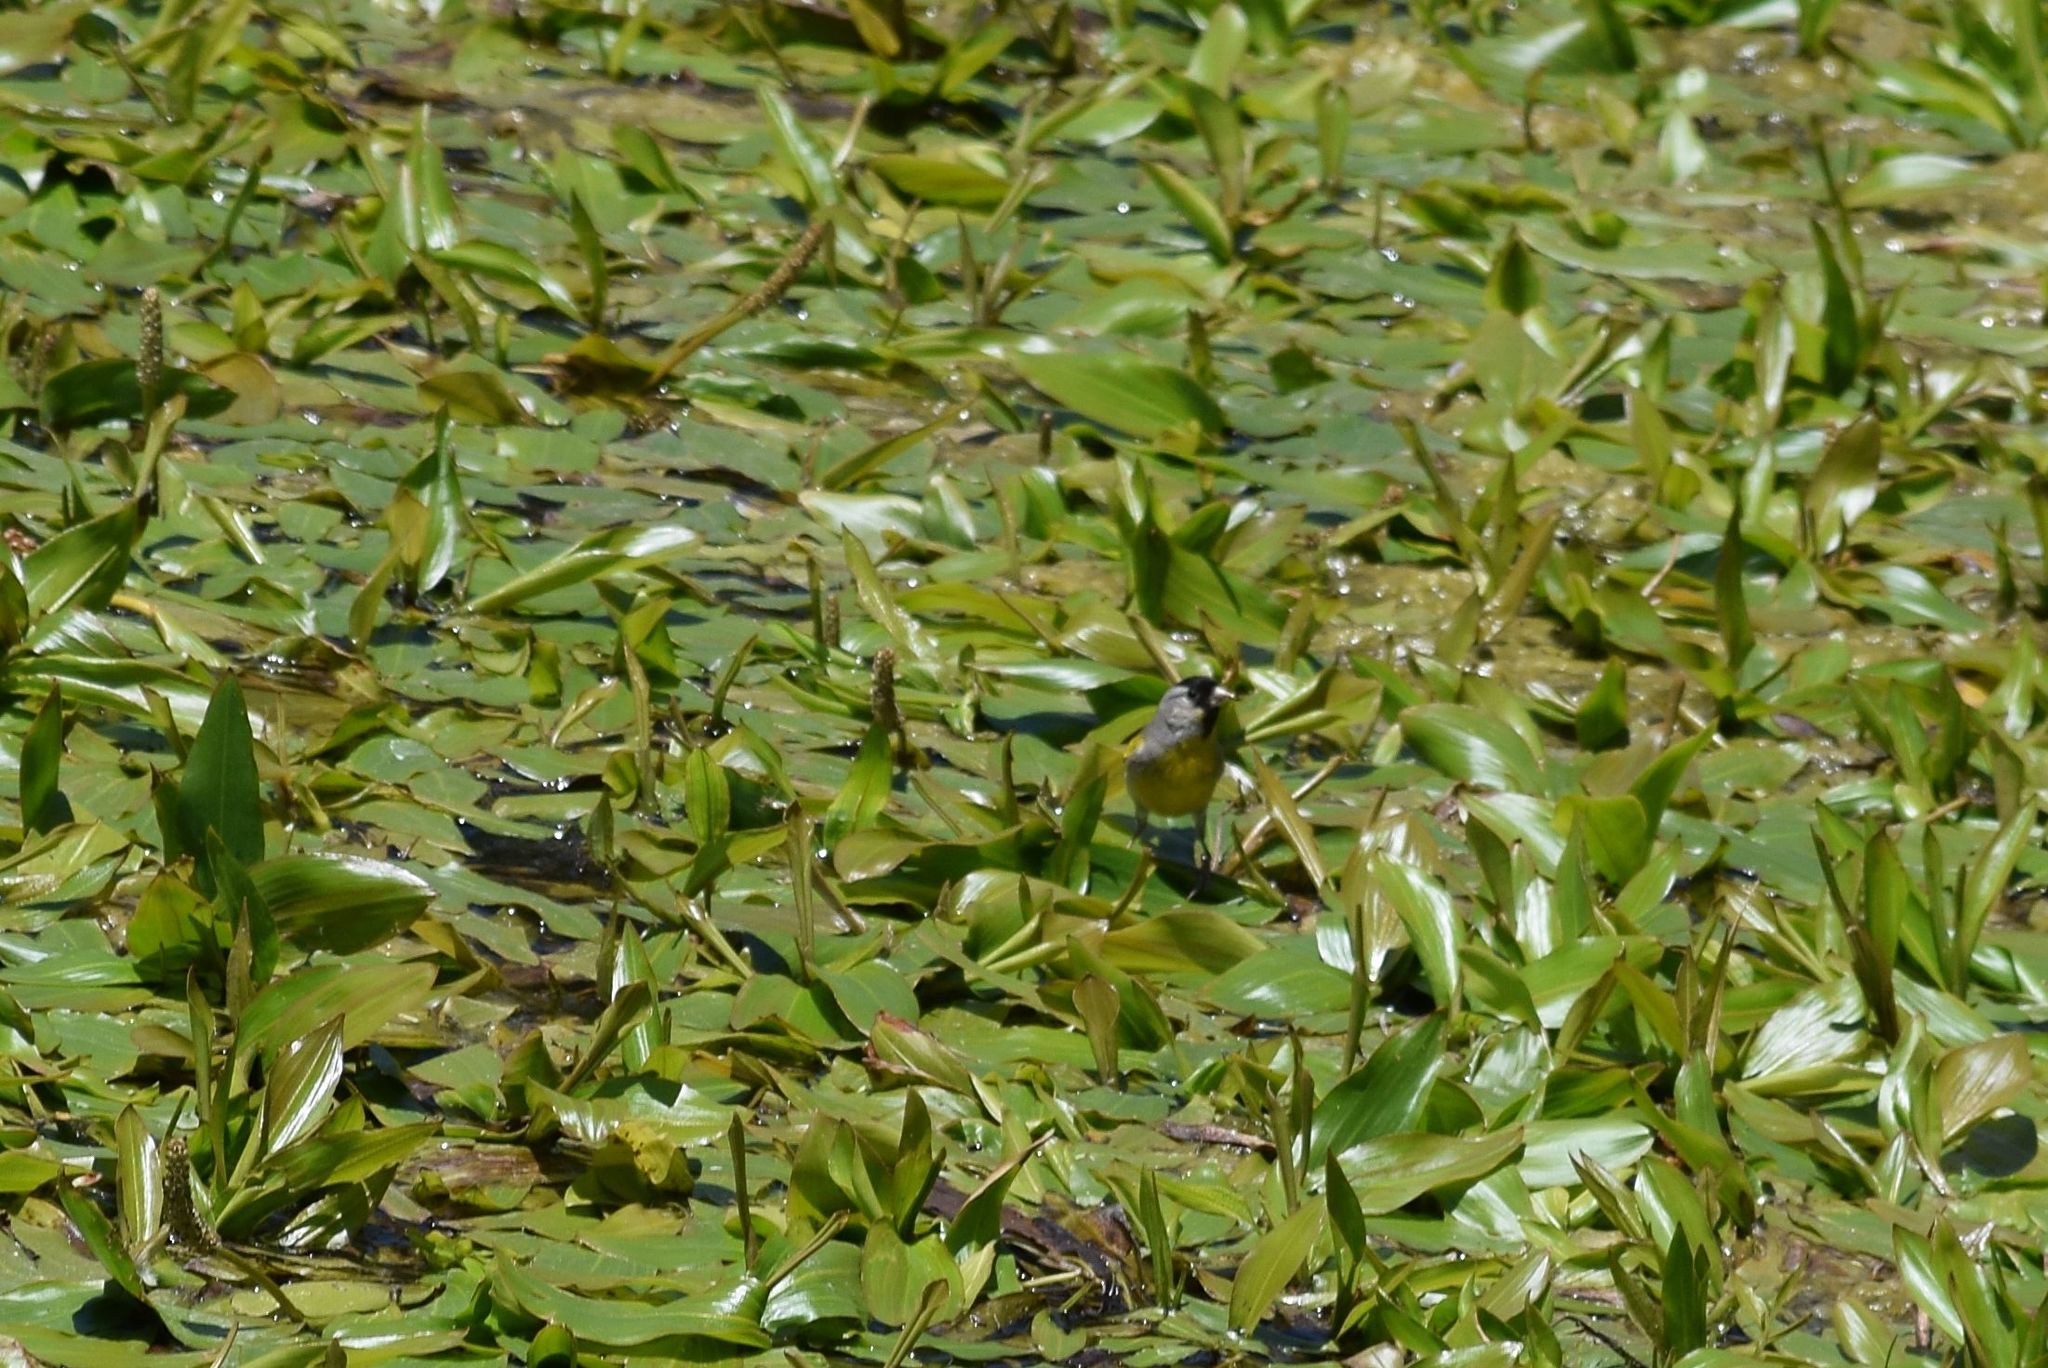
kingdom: Animalia
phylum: Chordata
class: Aves
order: Passeriformes
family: Fringillidae
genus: Spinus
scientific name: Spinus lawrencei
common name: Lawrence's goldfinch
